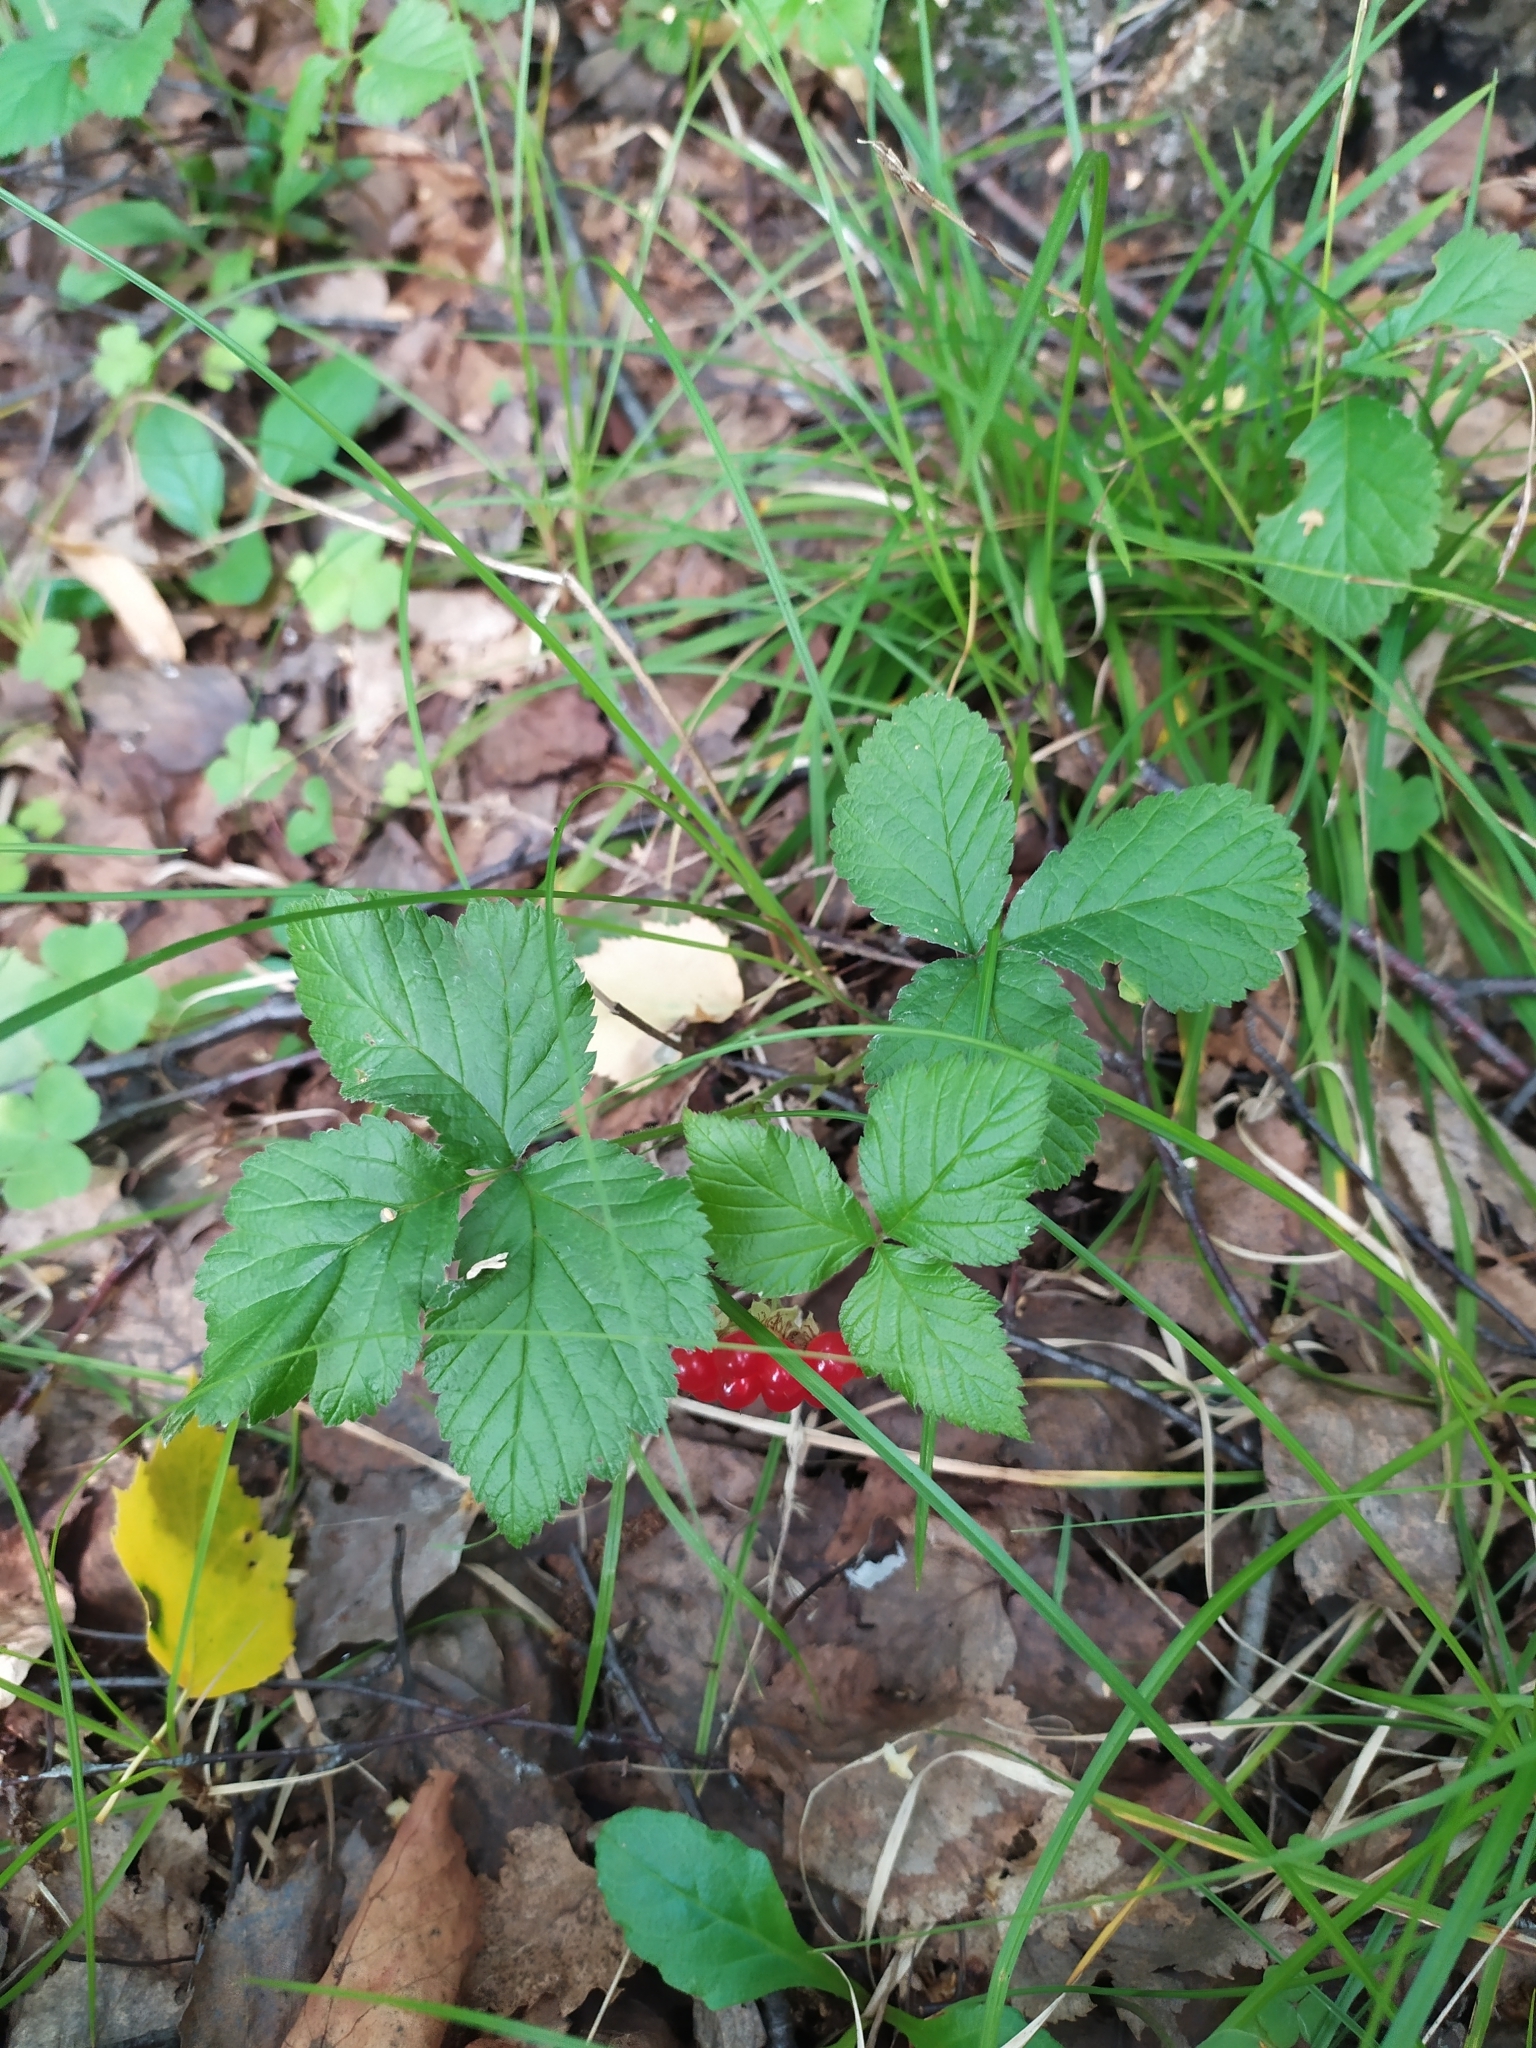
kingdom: Plantae
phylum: Tracheophyta
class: Magnoliopsida
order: Rosales
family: Rosaceae
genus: Rubus
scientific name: Rubus saxatilis
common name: Stone bramble
